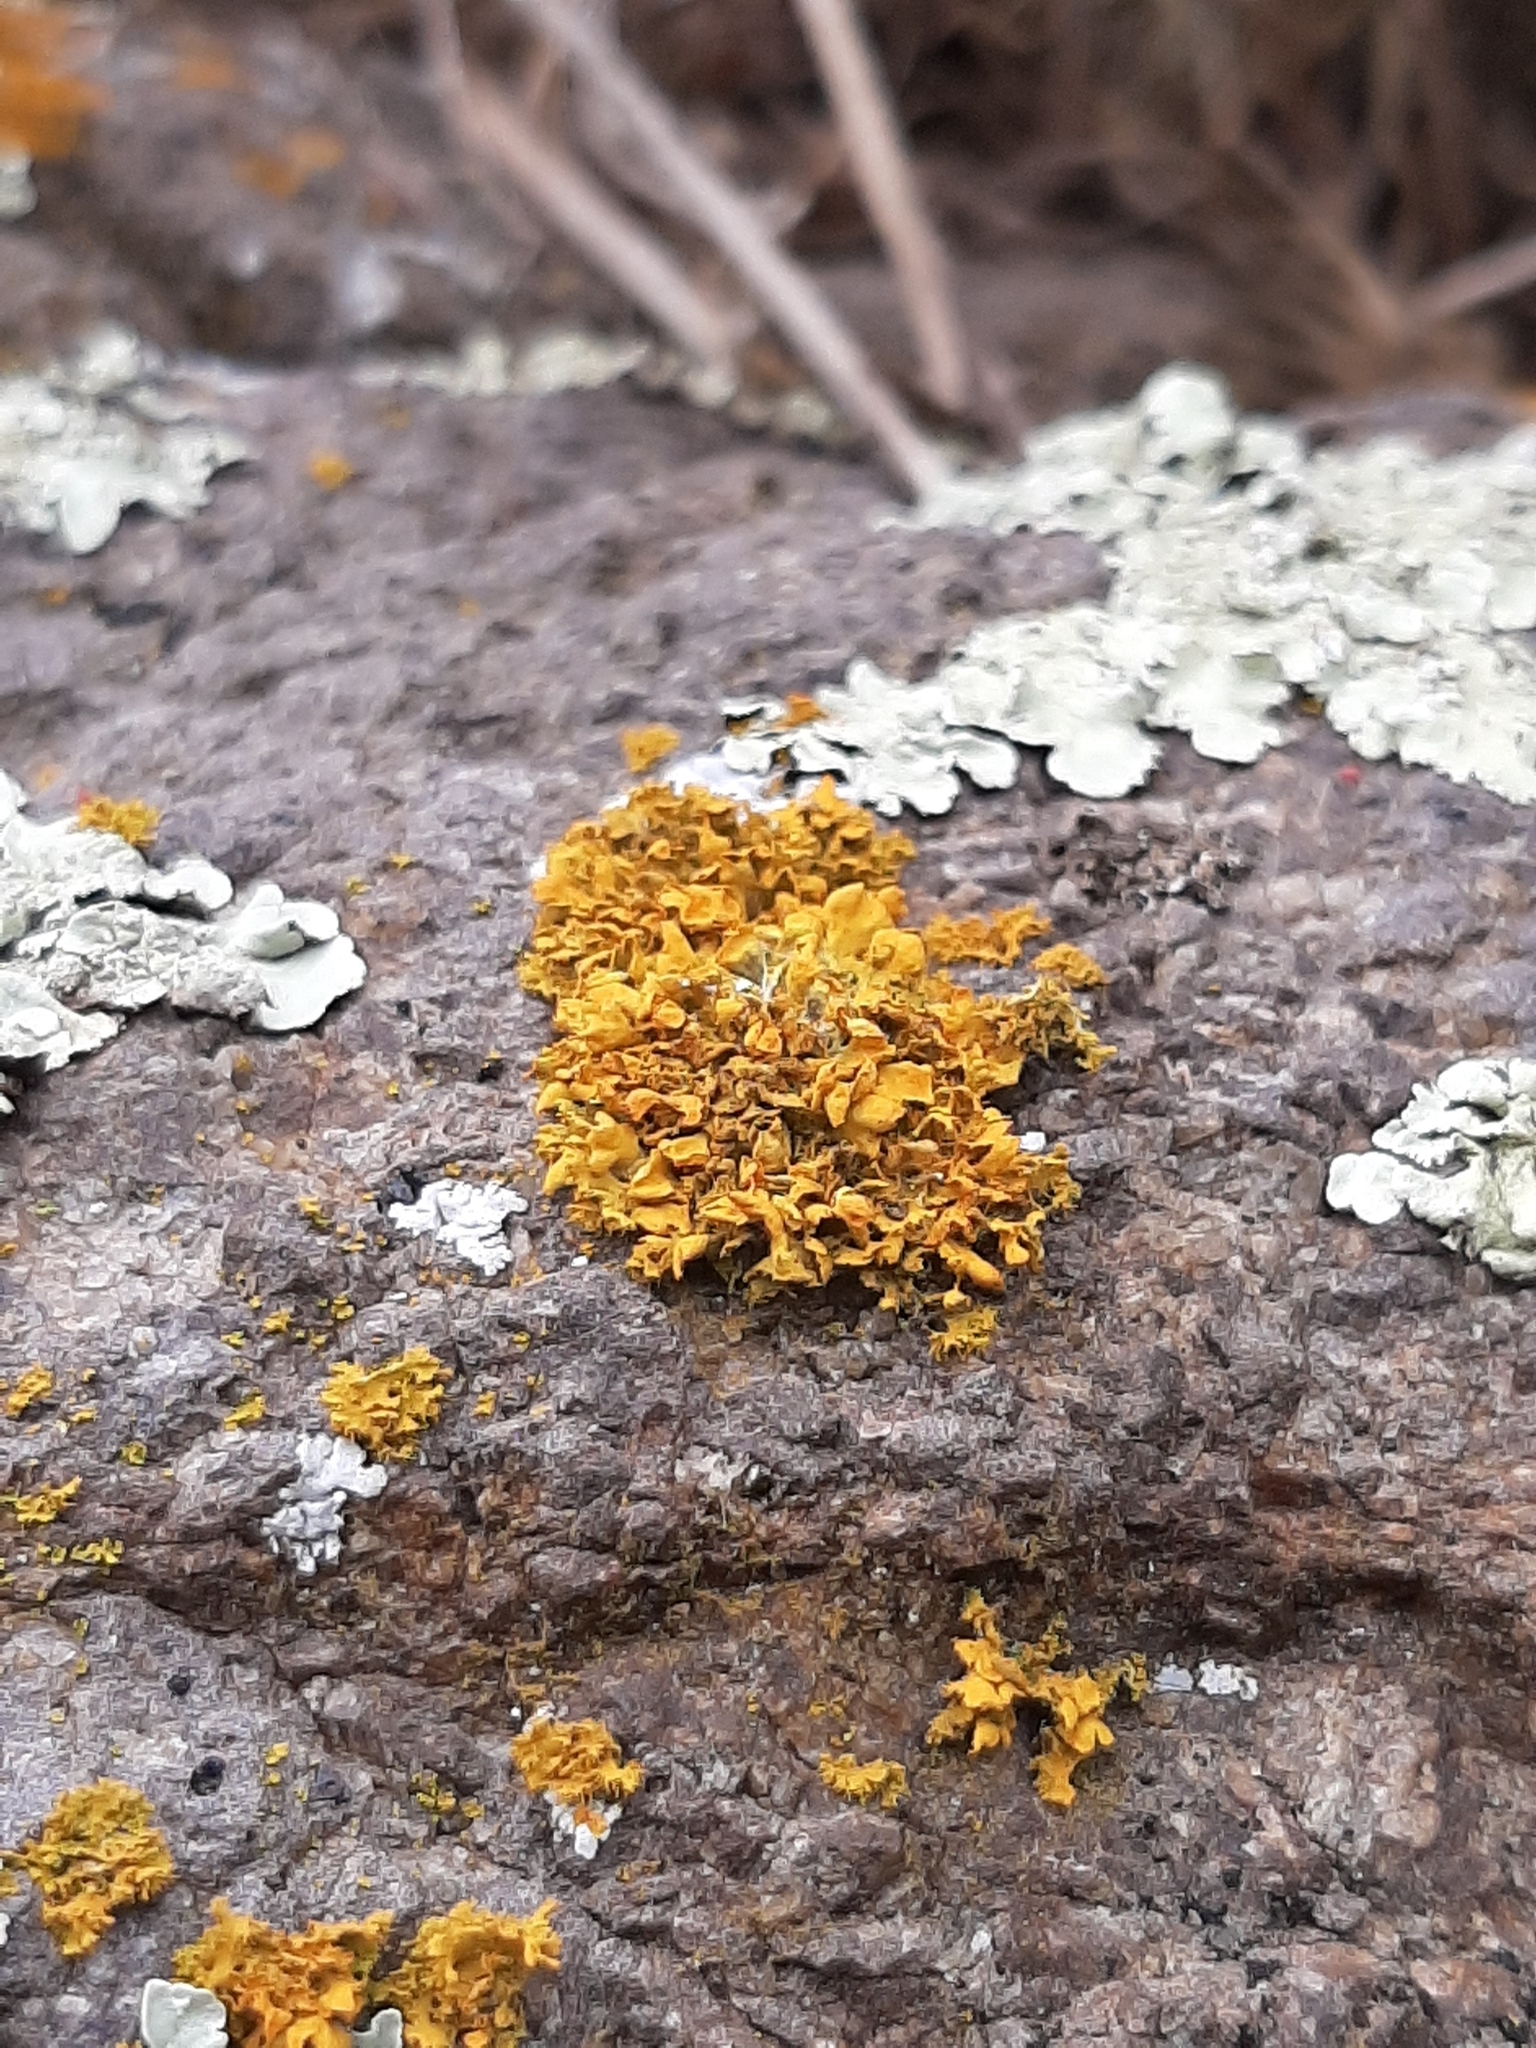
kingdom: Fungi
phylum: Ascomycota
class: Lecanoromycetes
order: Teloschistales
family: Teloschistaceae
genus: Teloschistes
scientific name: Teloschistes velifer
